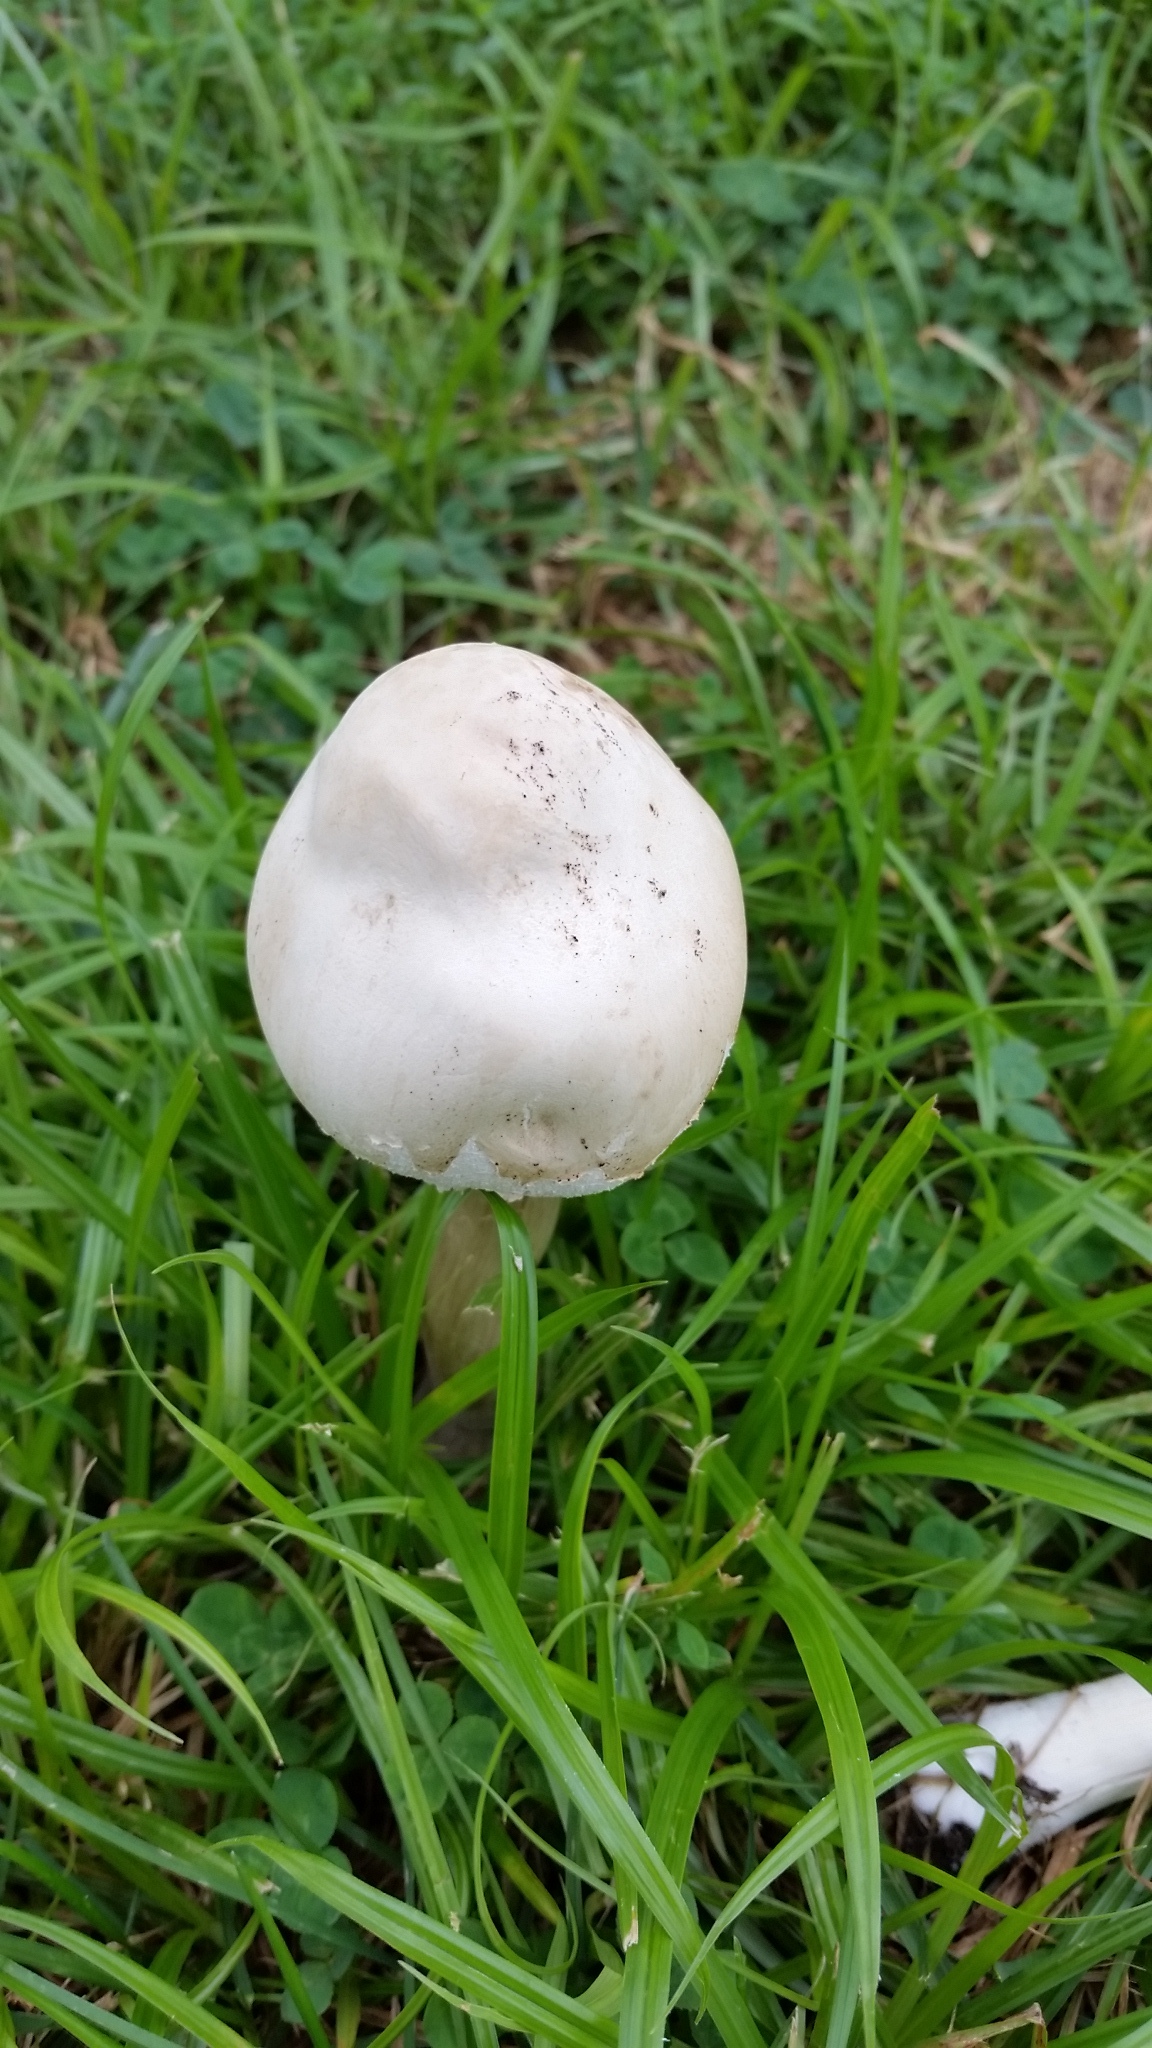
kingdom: Fungi
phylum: Basidiomycota
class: Agaricomycetes
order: Agaricales
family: Agaricaceae
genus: Chlorophyllum
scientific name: Chlorophyllum molybdites
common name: False parasol
